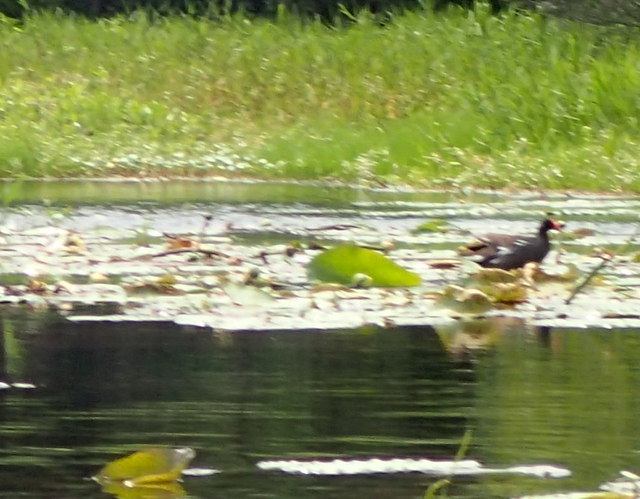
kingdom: Animalia
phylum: Chordata
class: Aves
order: Gruiformes
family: Rallidae
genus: Gallinula
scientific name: Gallinula chloropus
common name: Common moorhen
